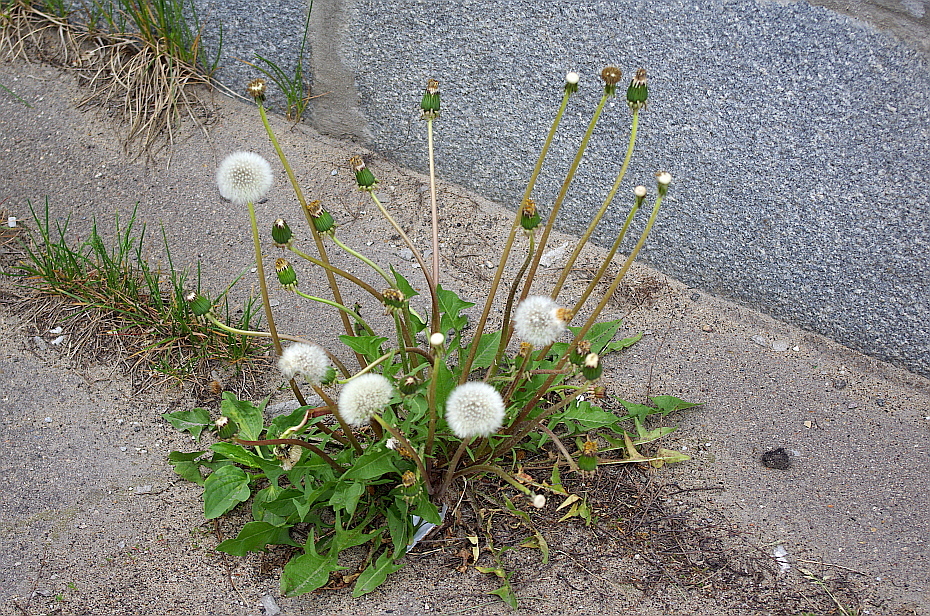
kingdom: Plantae
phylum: Tracheophyta
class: Magnoliopsida
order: Asterales
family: Asteraceae
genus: Taraxacum
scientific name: Taraxacum officinale
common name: Common dandelion
